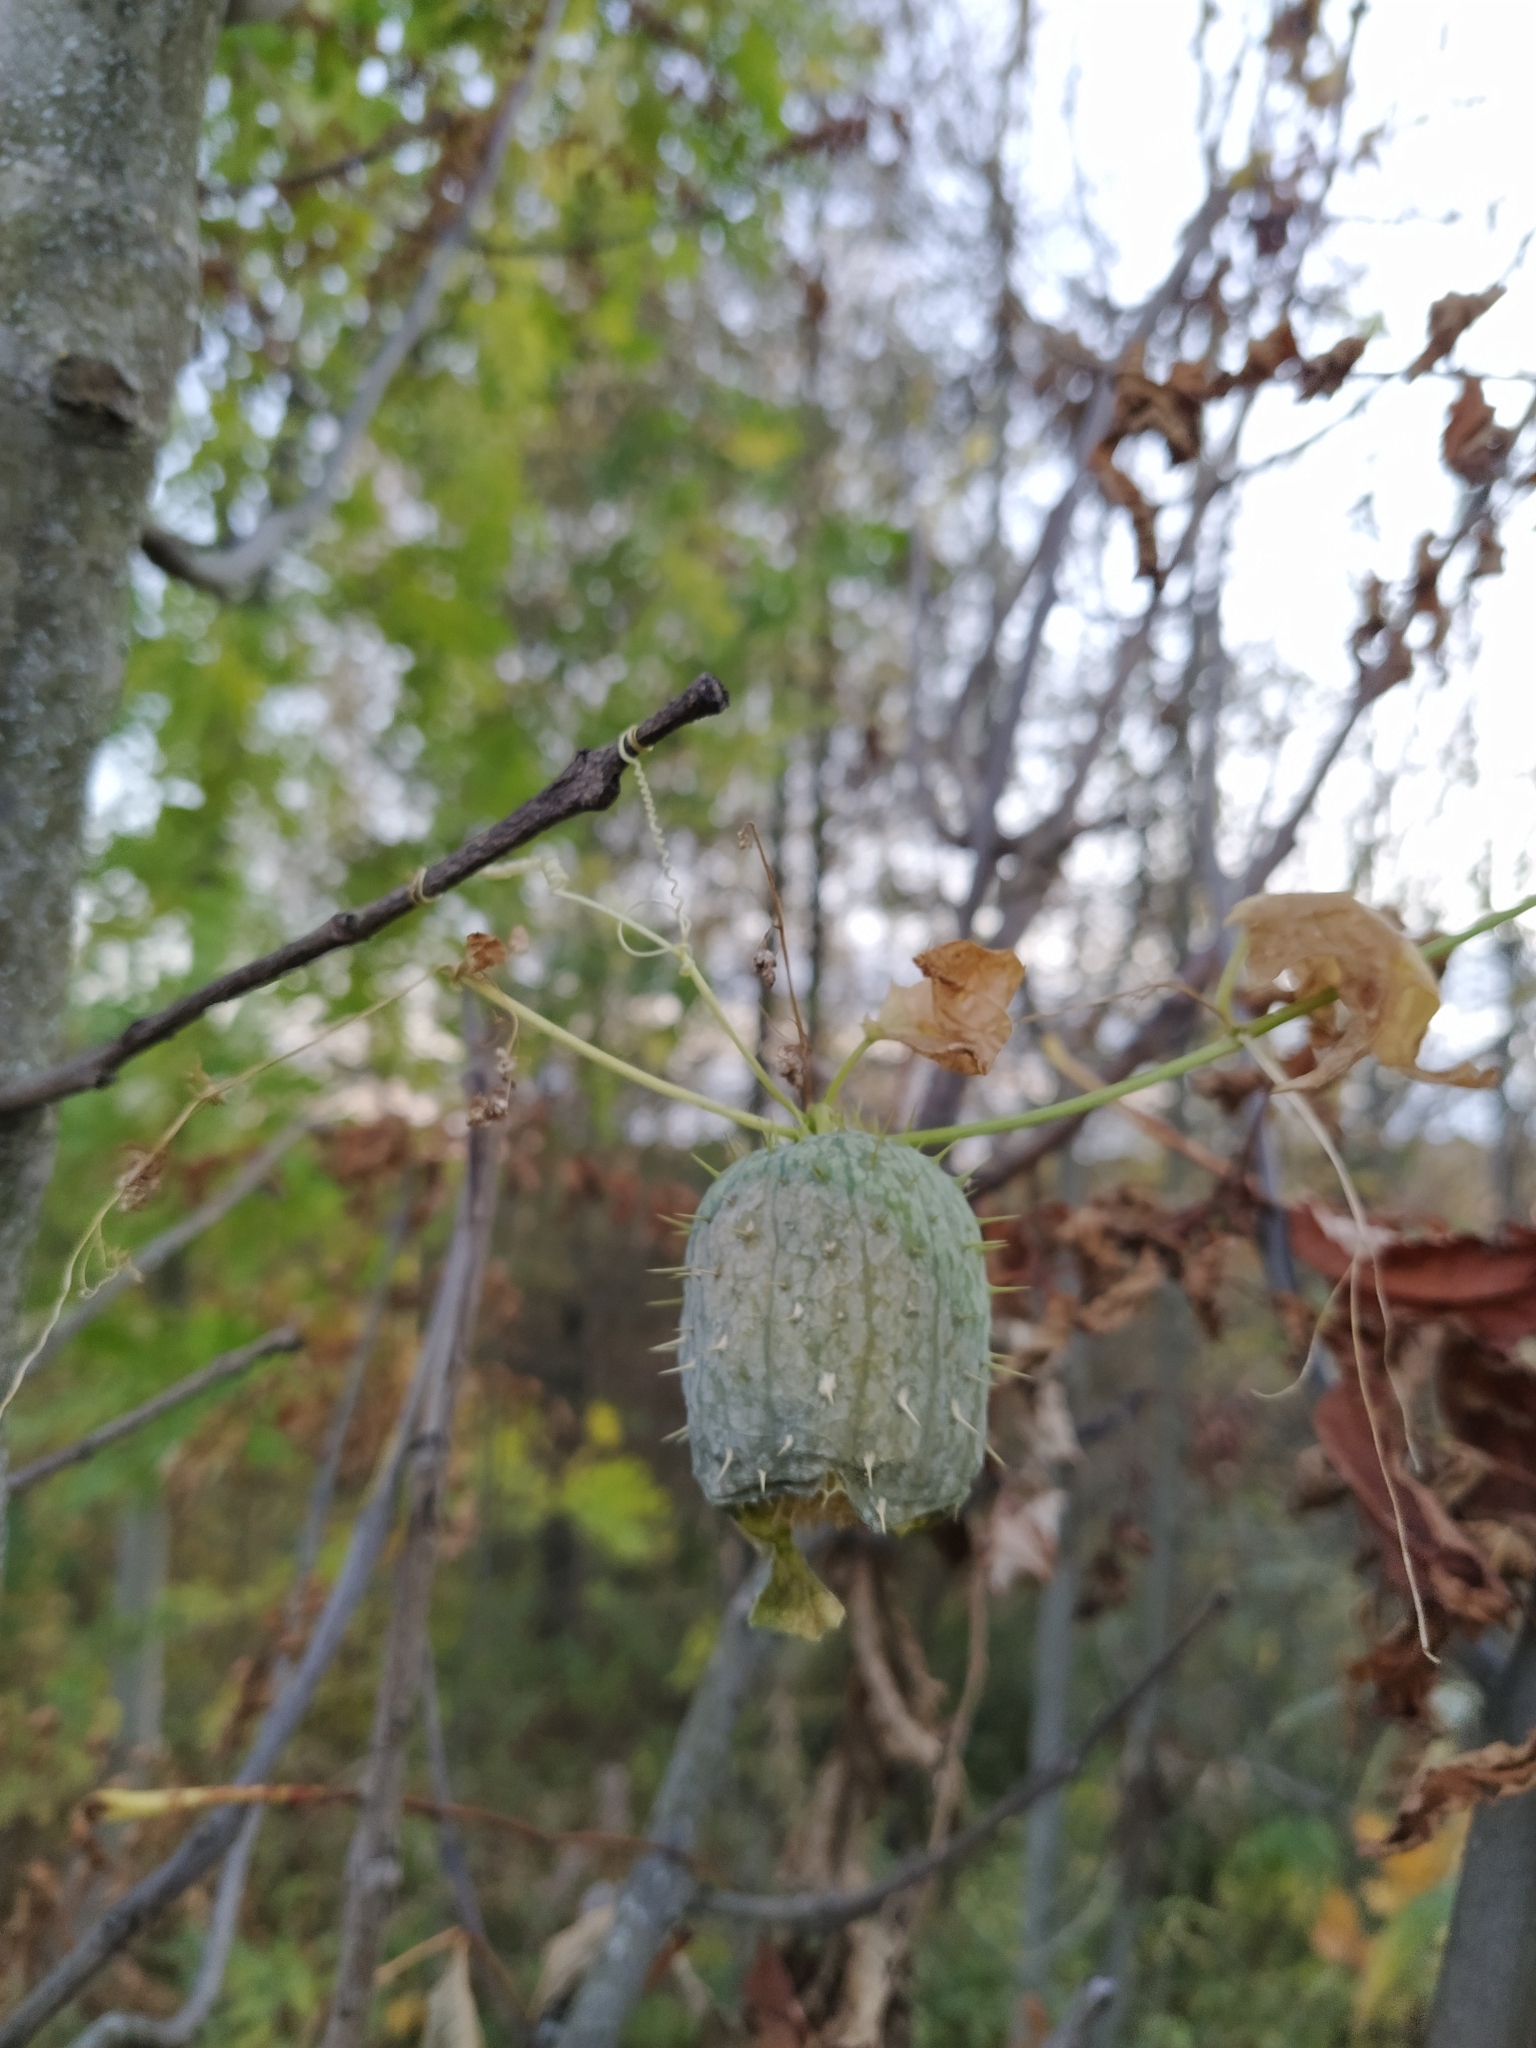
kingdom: Plantae
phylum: Tracheophyta
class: Magnoliopsida
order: Cucurbitales
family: Cucurbitaceae
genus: Echinocystis
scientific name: Echinocystis lobata
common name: Wild cucumber
